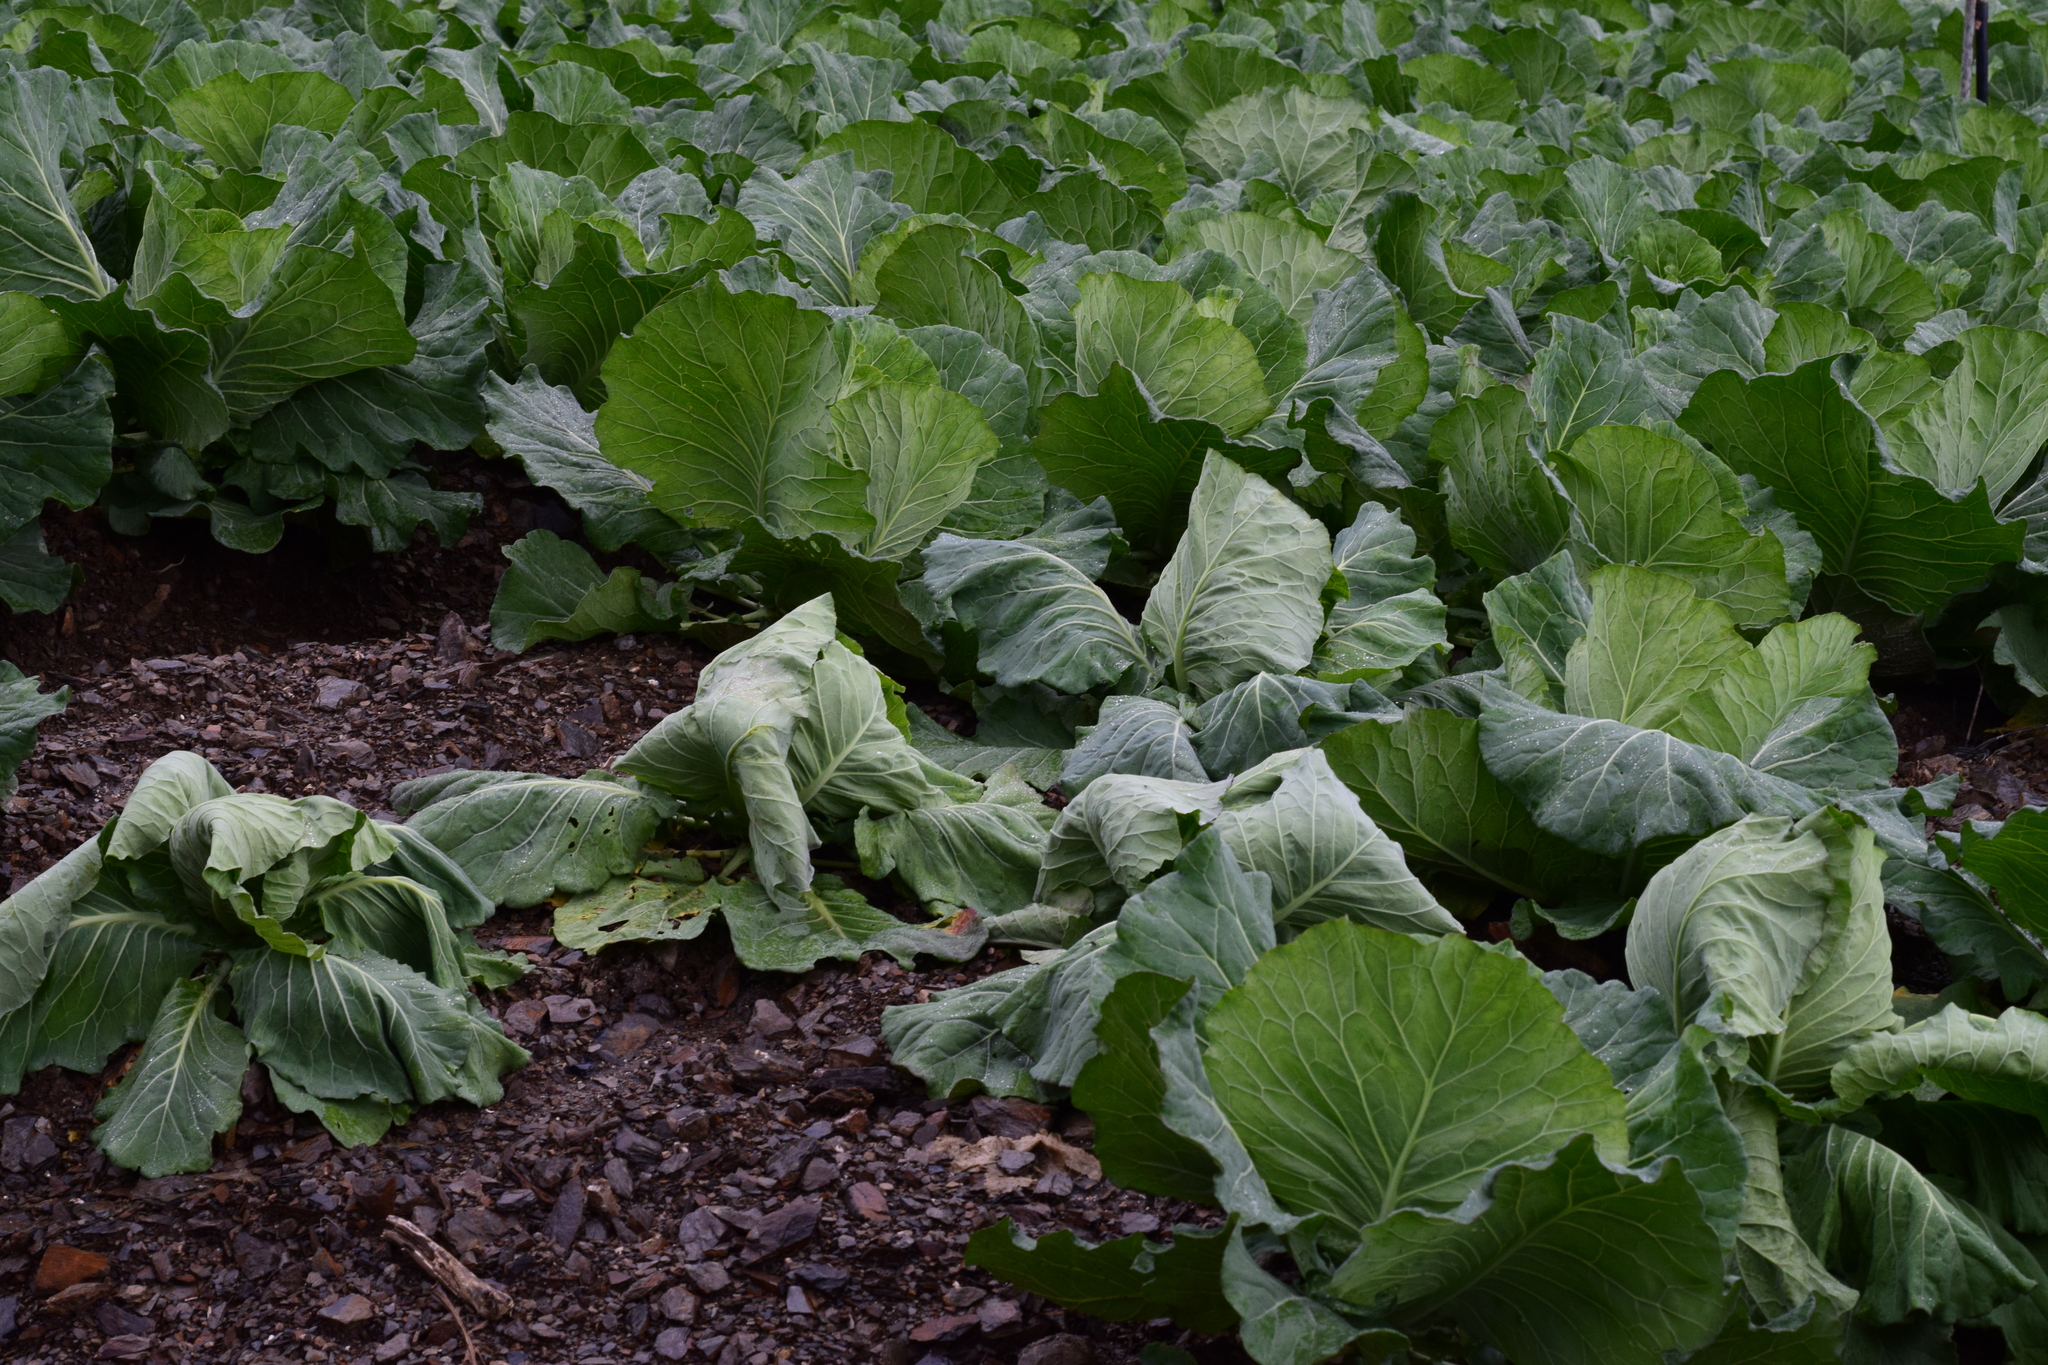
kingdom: Fungi
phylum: Ascomycota
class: Dothideomycetes
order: Pleosporales
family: Leptosphaeriaceae
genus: Leptosphaeria
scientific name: Leptosphaeria maculans
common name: Brassica blackleg disease
